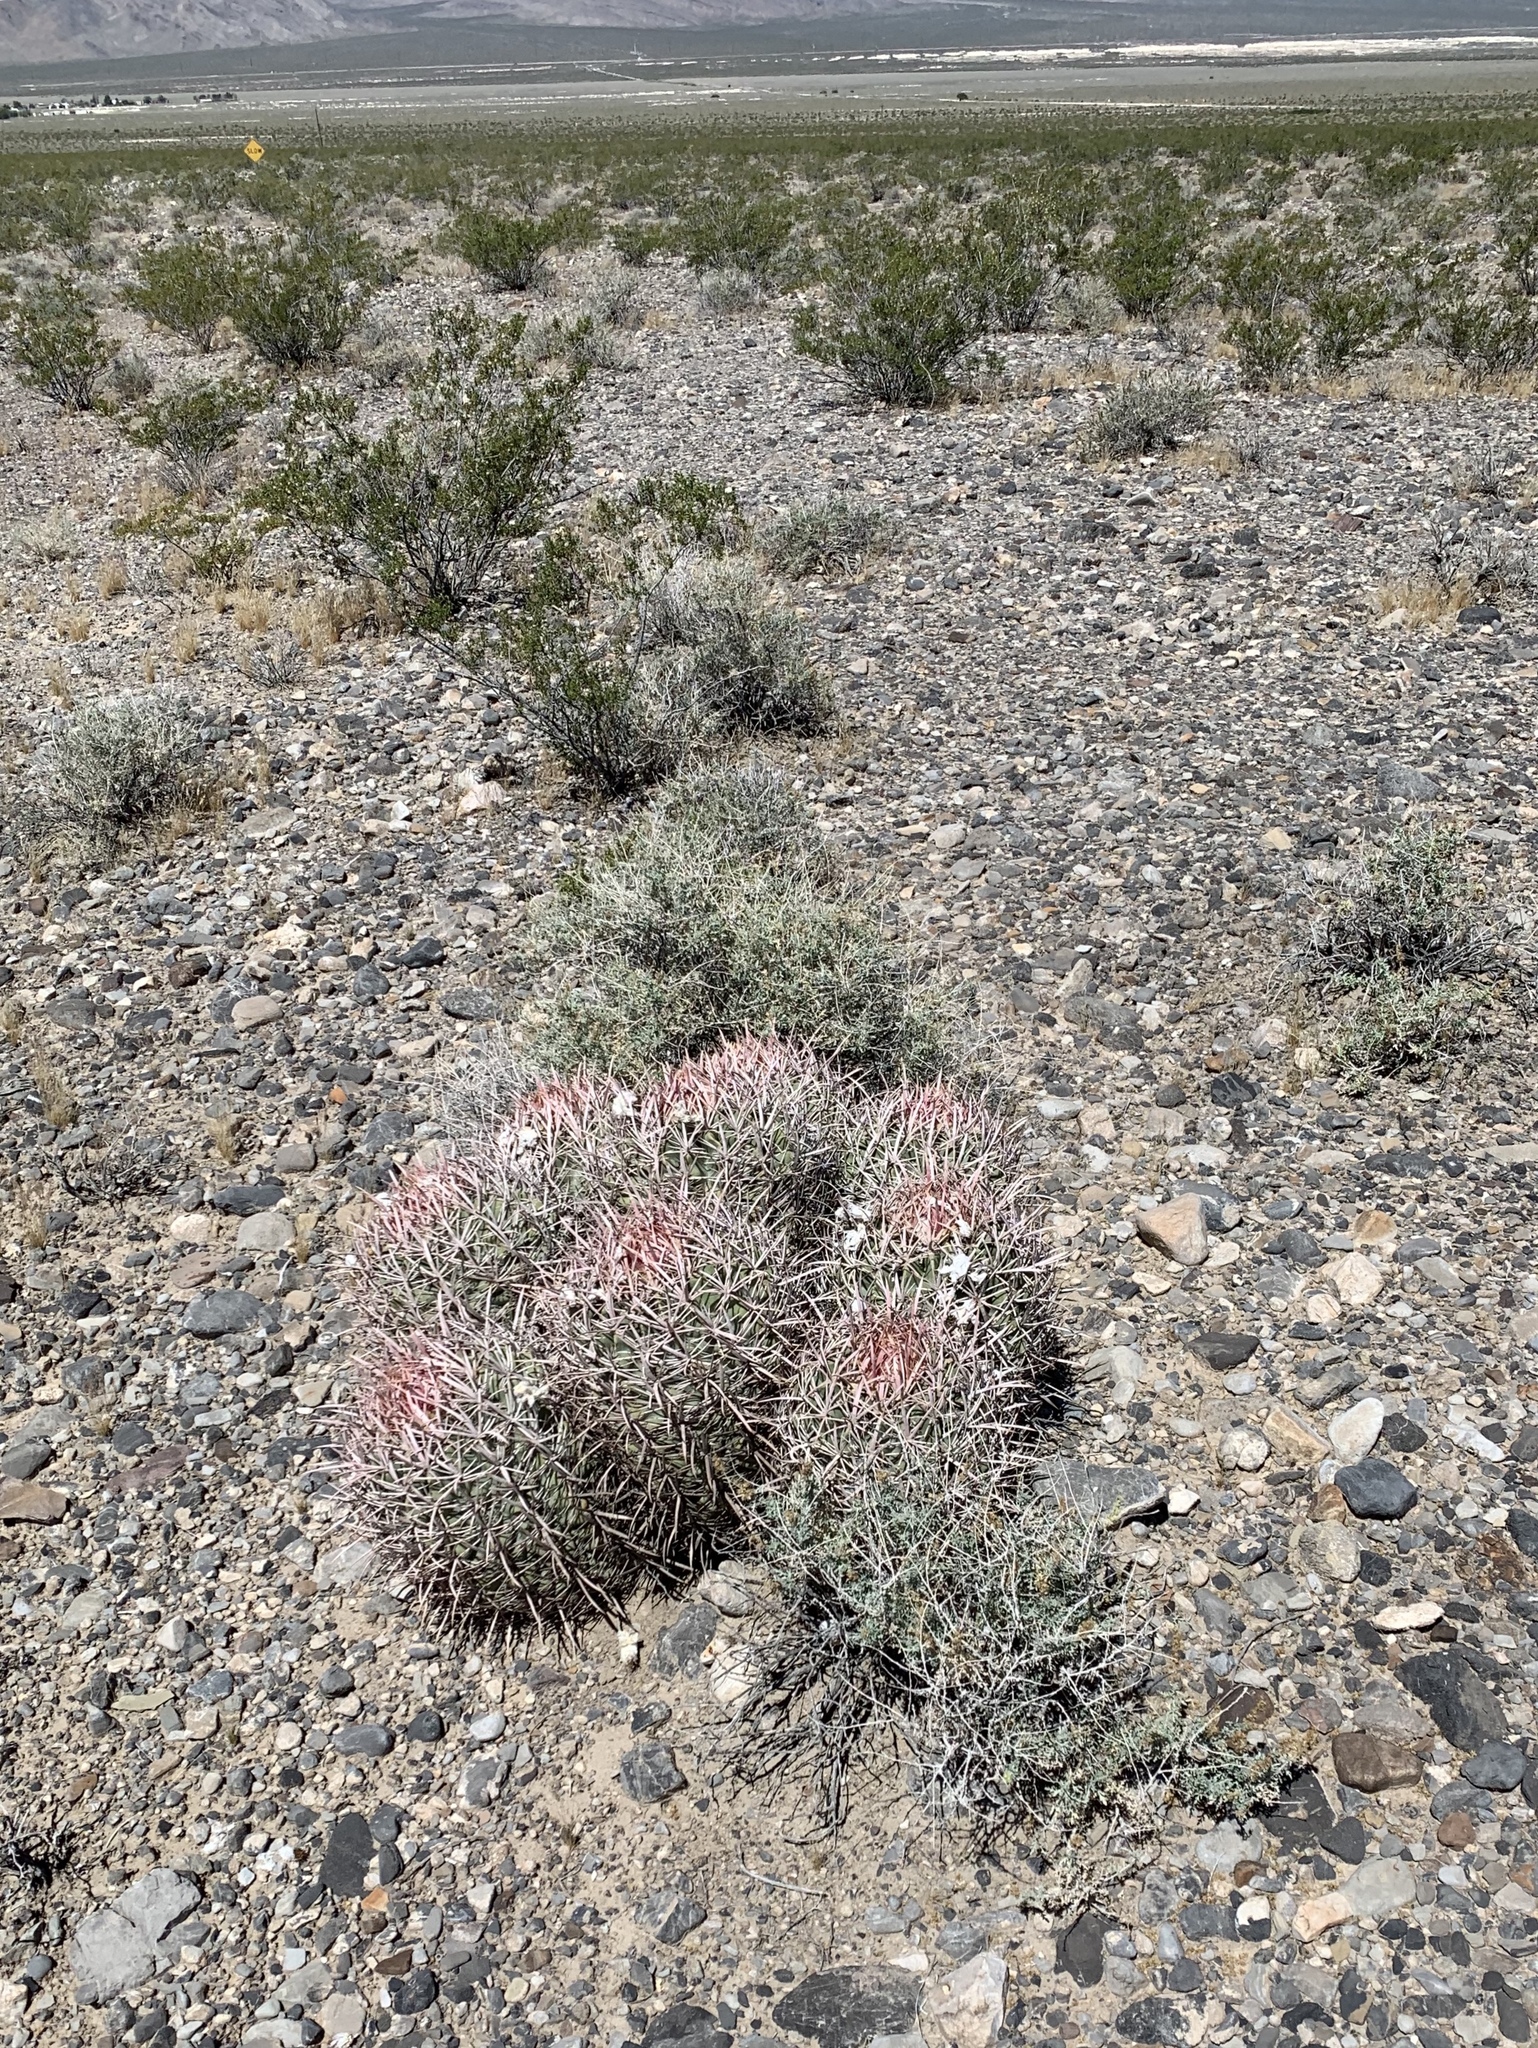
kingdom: Plantae
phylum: Tracheophyta
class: Magnoliopsida
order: Caryophyllales
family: Cactaceae
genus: Echinocactus
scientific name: Echinocactus polycephalus
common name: Cottontop cactus
